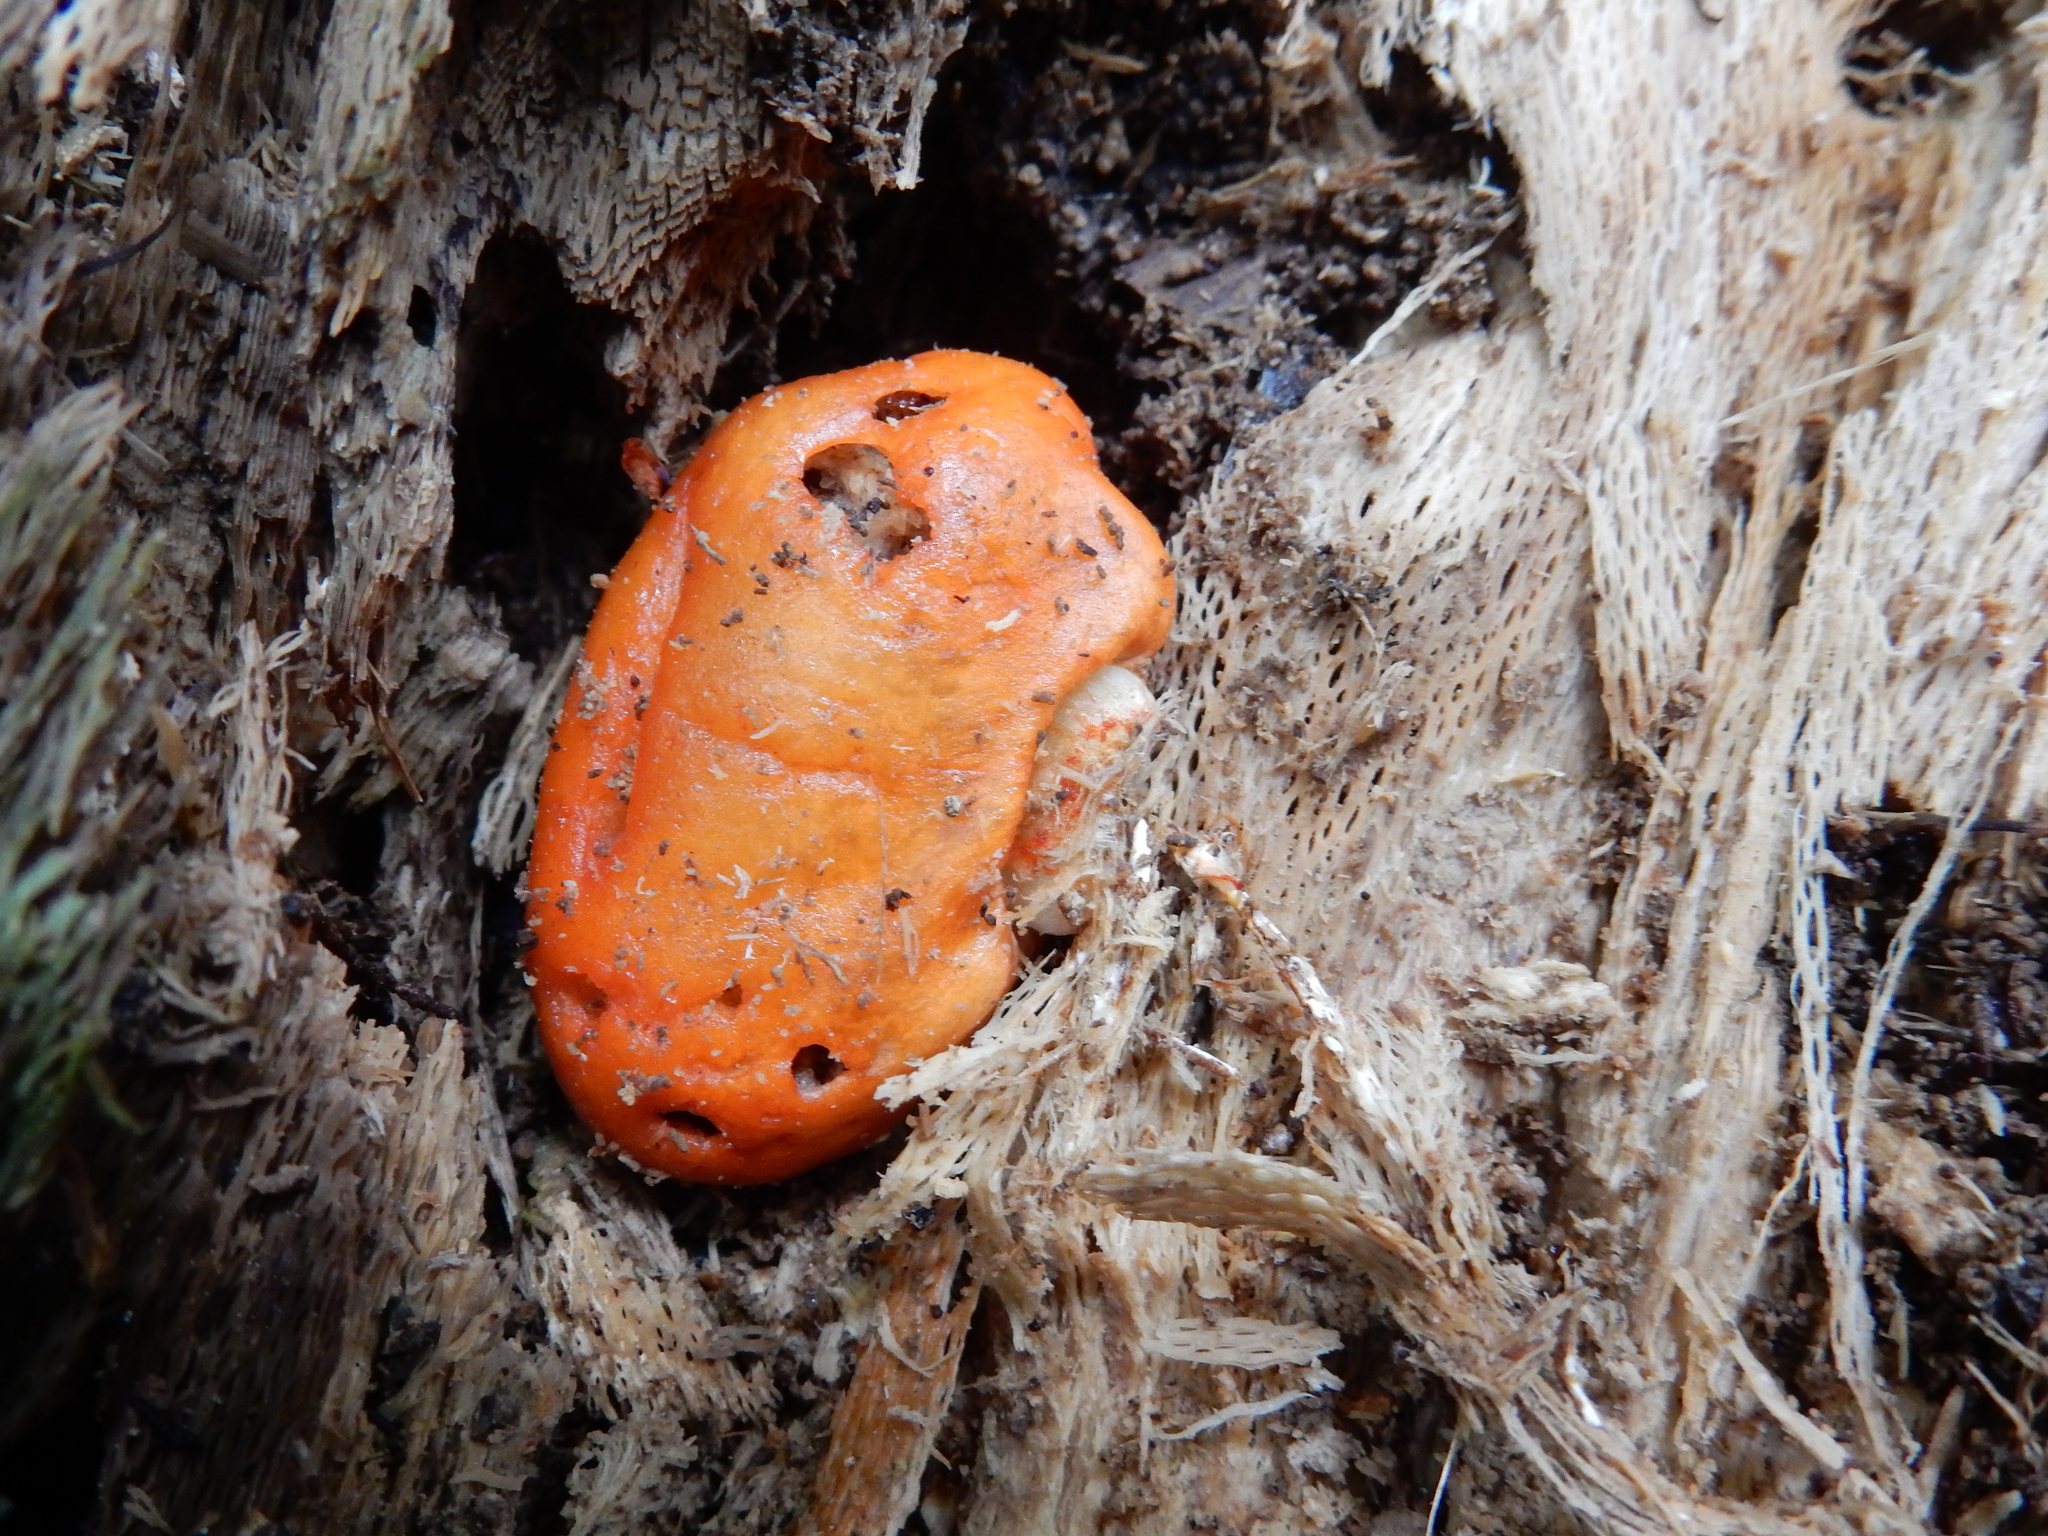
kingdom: Fungi
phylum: Basidiomycota
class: Agaricomycetes
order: Agaricales
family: Strophariaceae
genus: Leratiomyces
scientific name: Leratiomyces erythrocephalus
